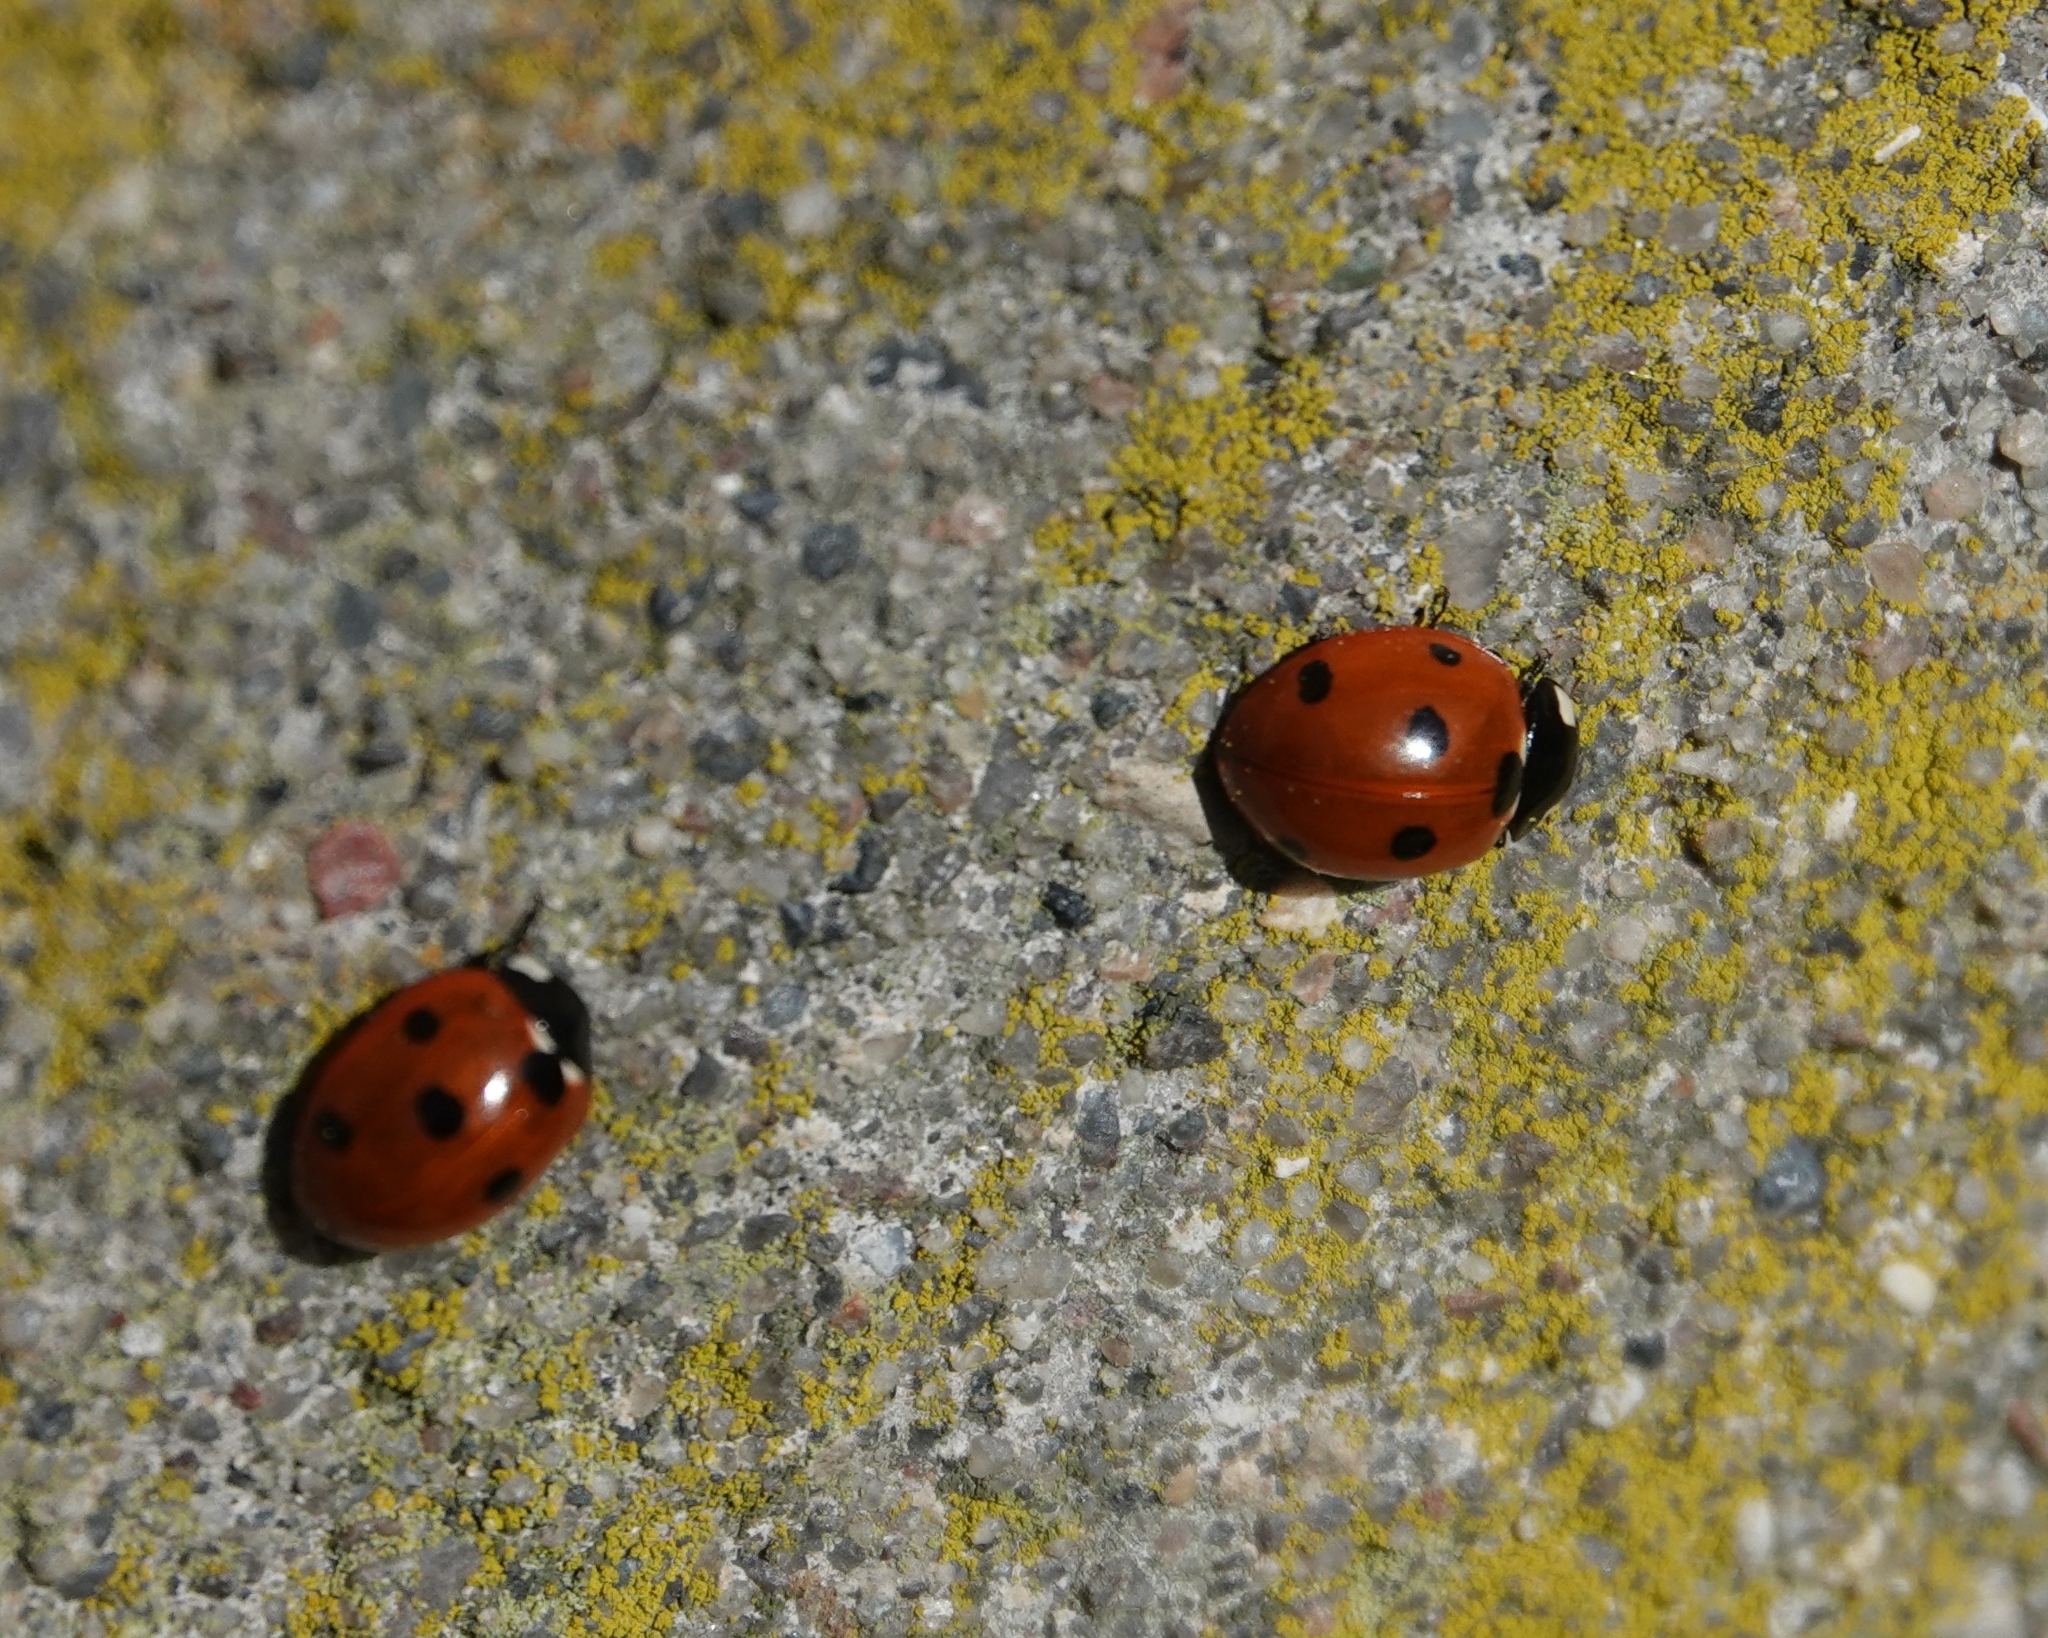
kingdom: Animalia
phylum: Arthropoda
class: Insecta
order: Coleoptera
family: Coccinellidae
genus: Coccinella
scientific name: Coccinella septempunctata
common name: Sevenspotted lady beetle
